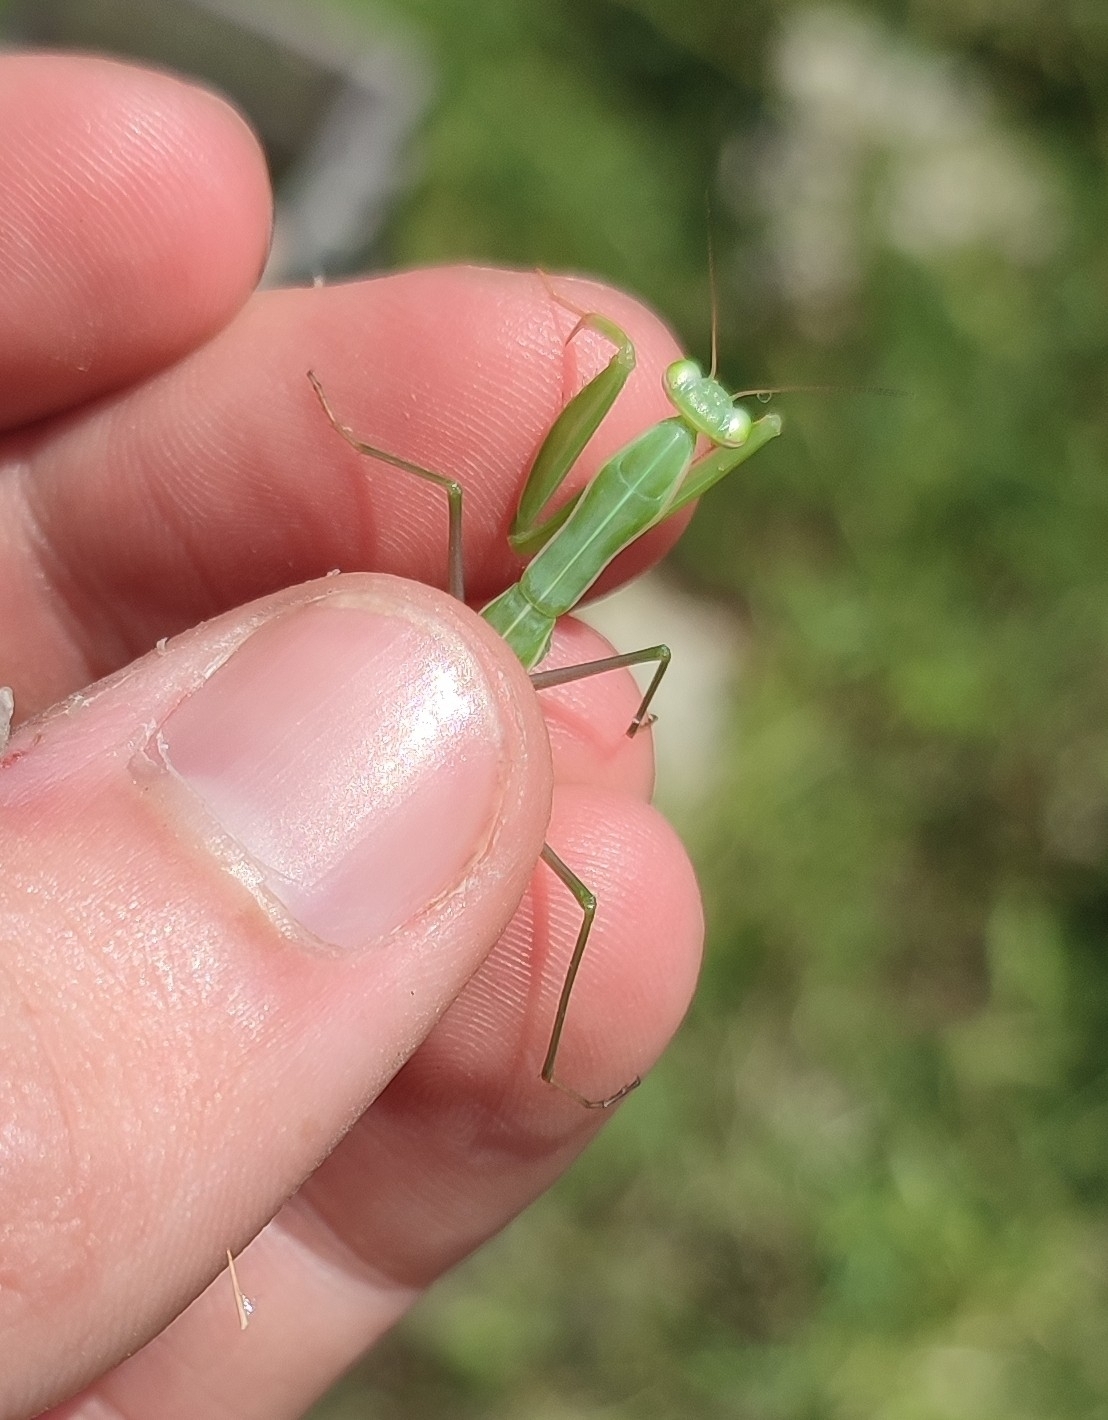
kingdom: Animalia
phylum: Arthropoda
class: Insecta
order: Mantodea
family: Mantidae
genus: Mantis
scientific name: Mantis religiosa
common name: Praying mantis
